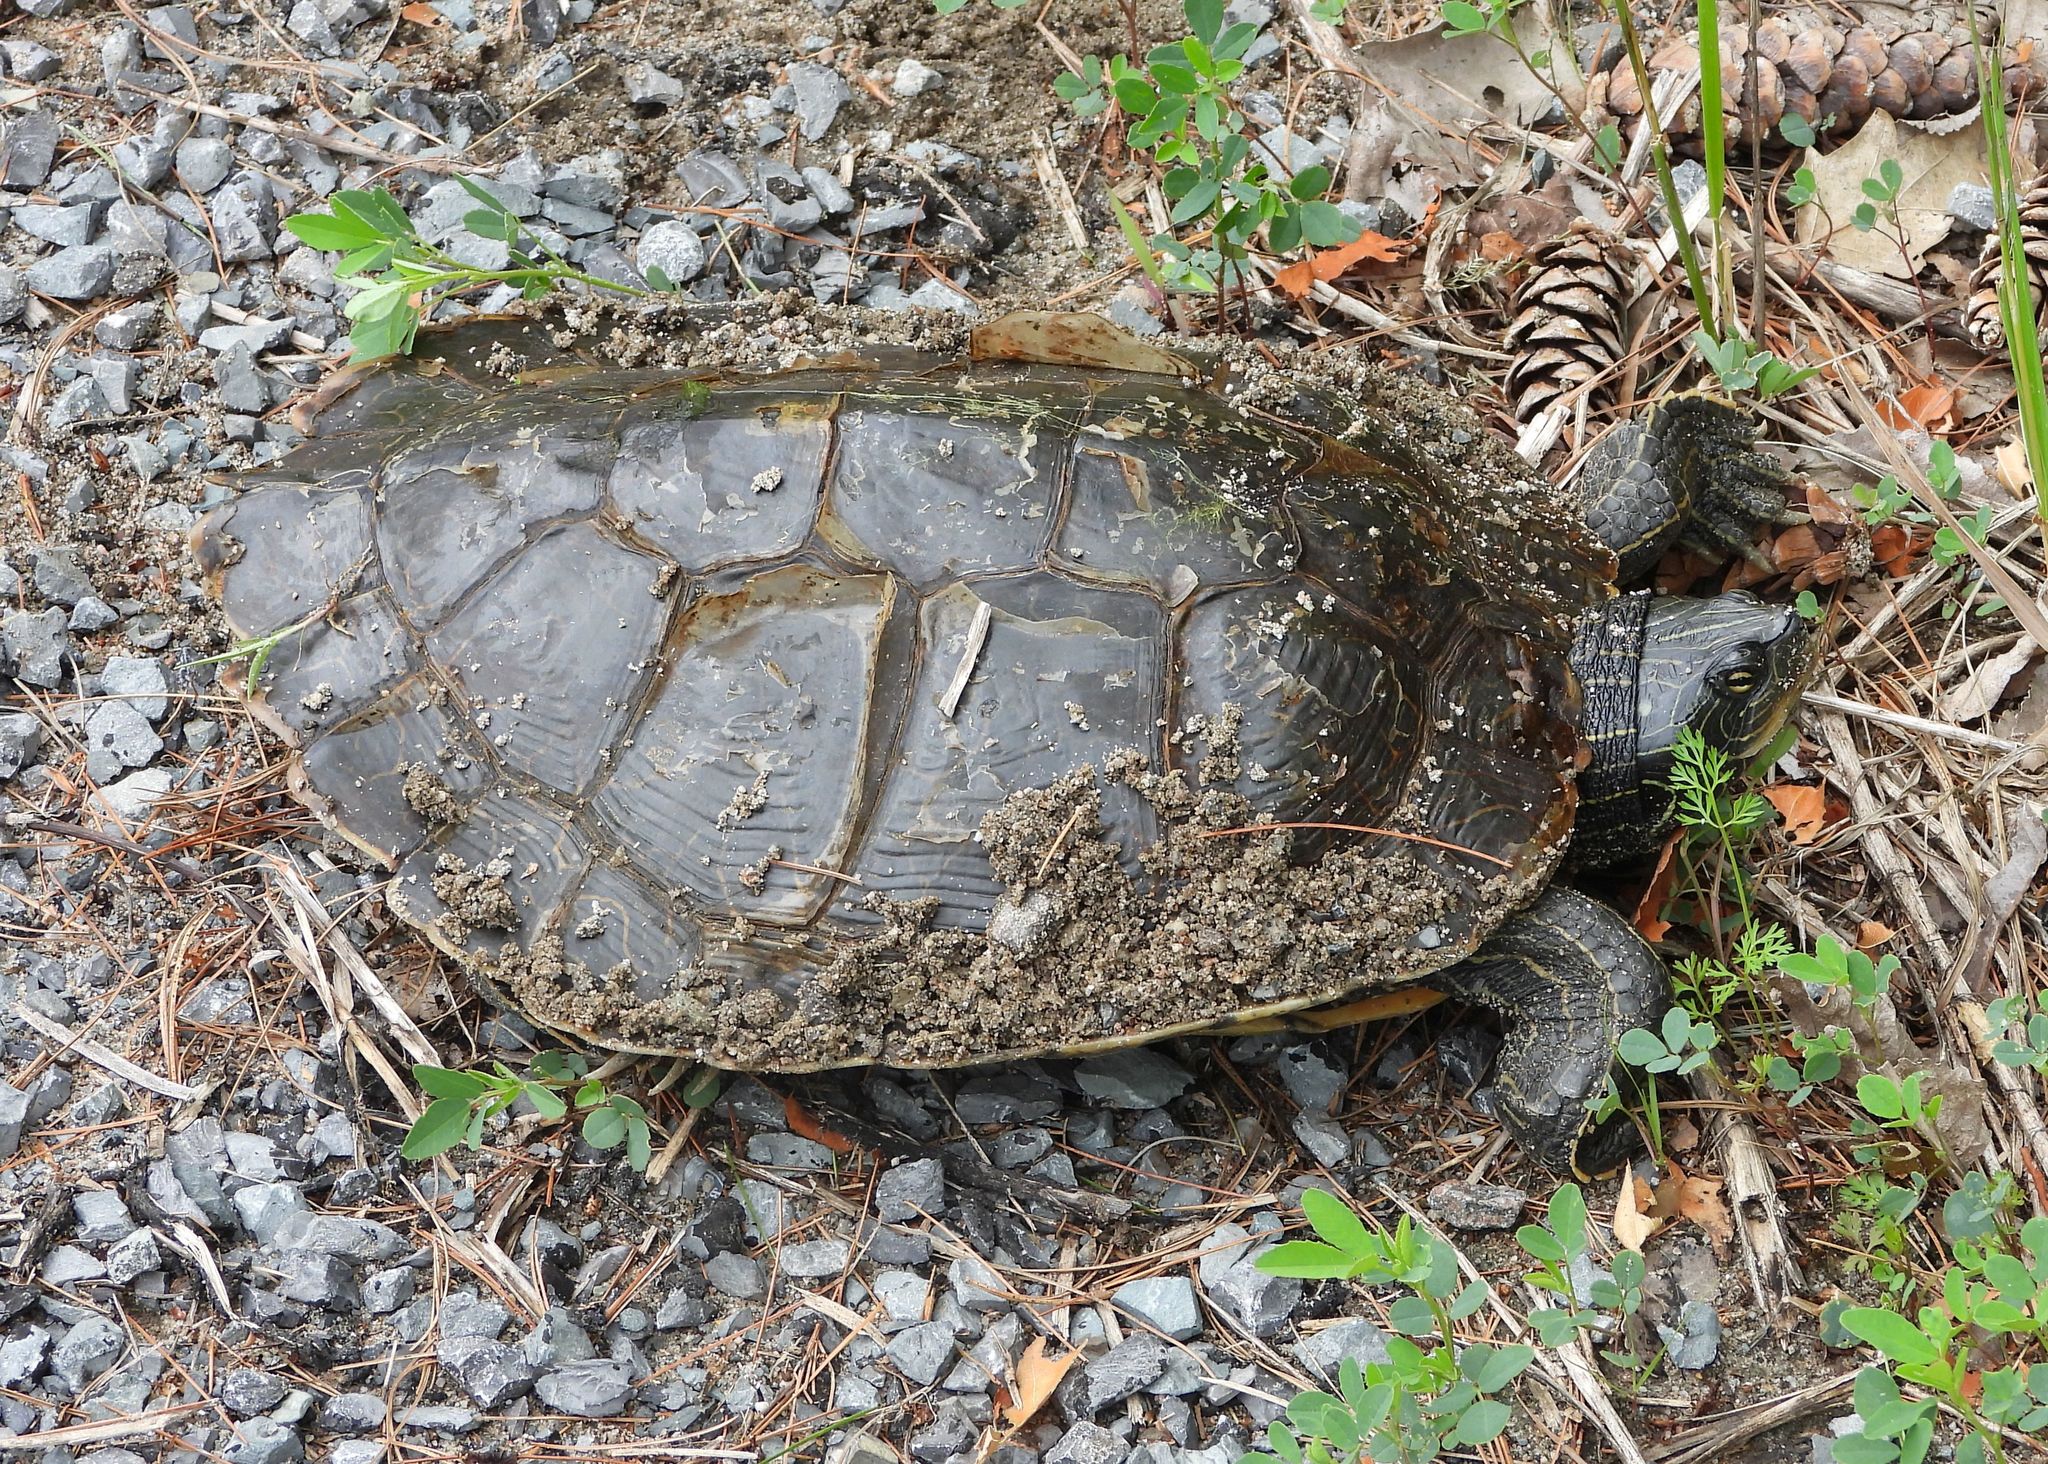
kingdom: Animalia
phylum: Chordata
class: Testudines
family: Emydidae
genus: Graptemys
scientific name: Graptemys geographica
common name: Common map turtle
